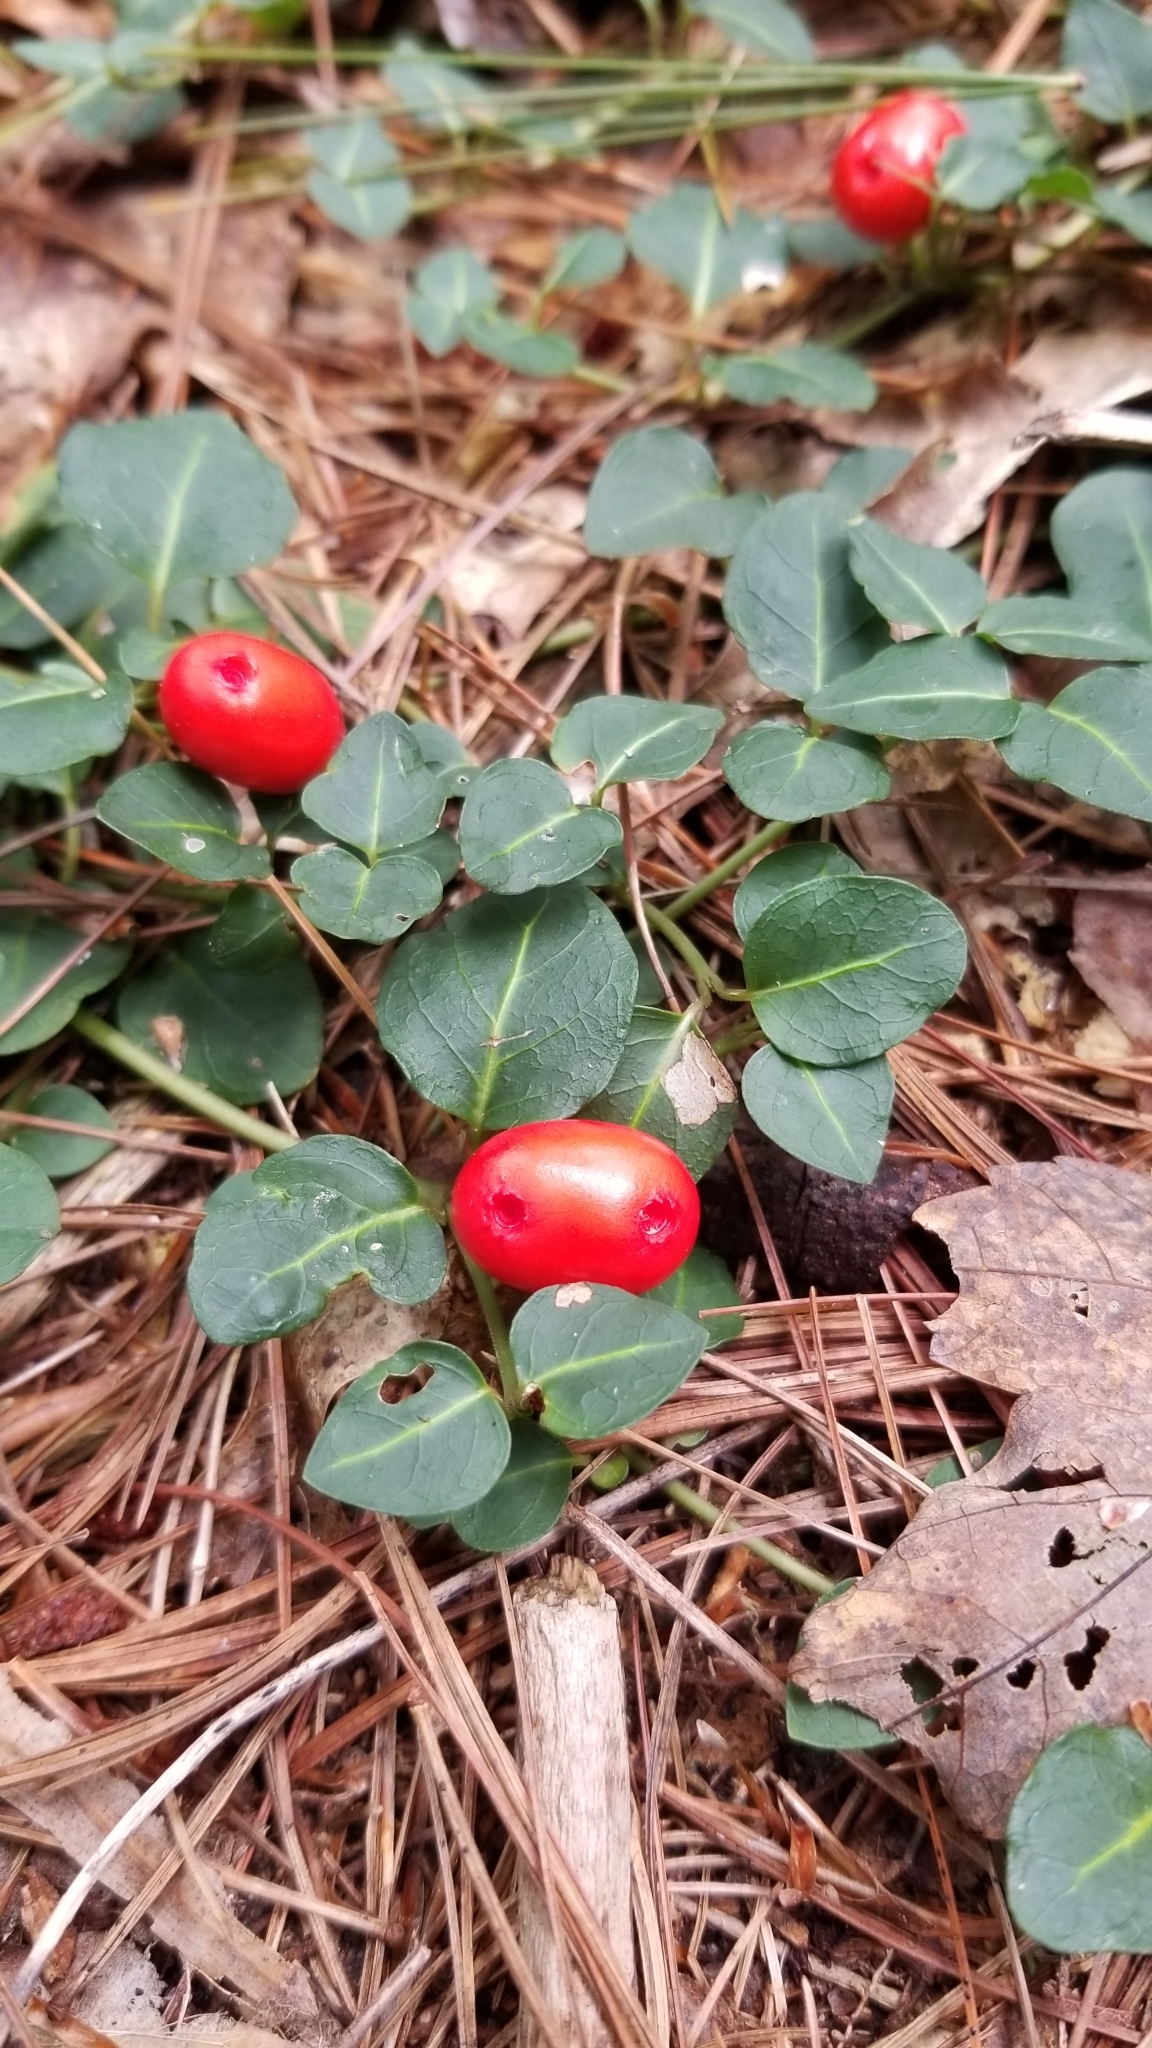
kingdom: Plantae
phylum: Tracheophyta
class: Magnoliopsida
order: Gentianales
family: Rubiaceae
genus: Mitchella
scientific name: Mitchella repens
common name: Partridge-berry
